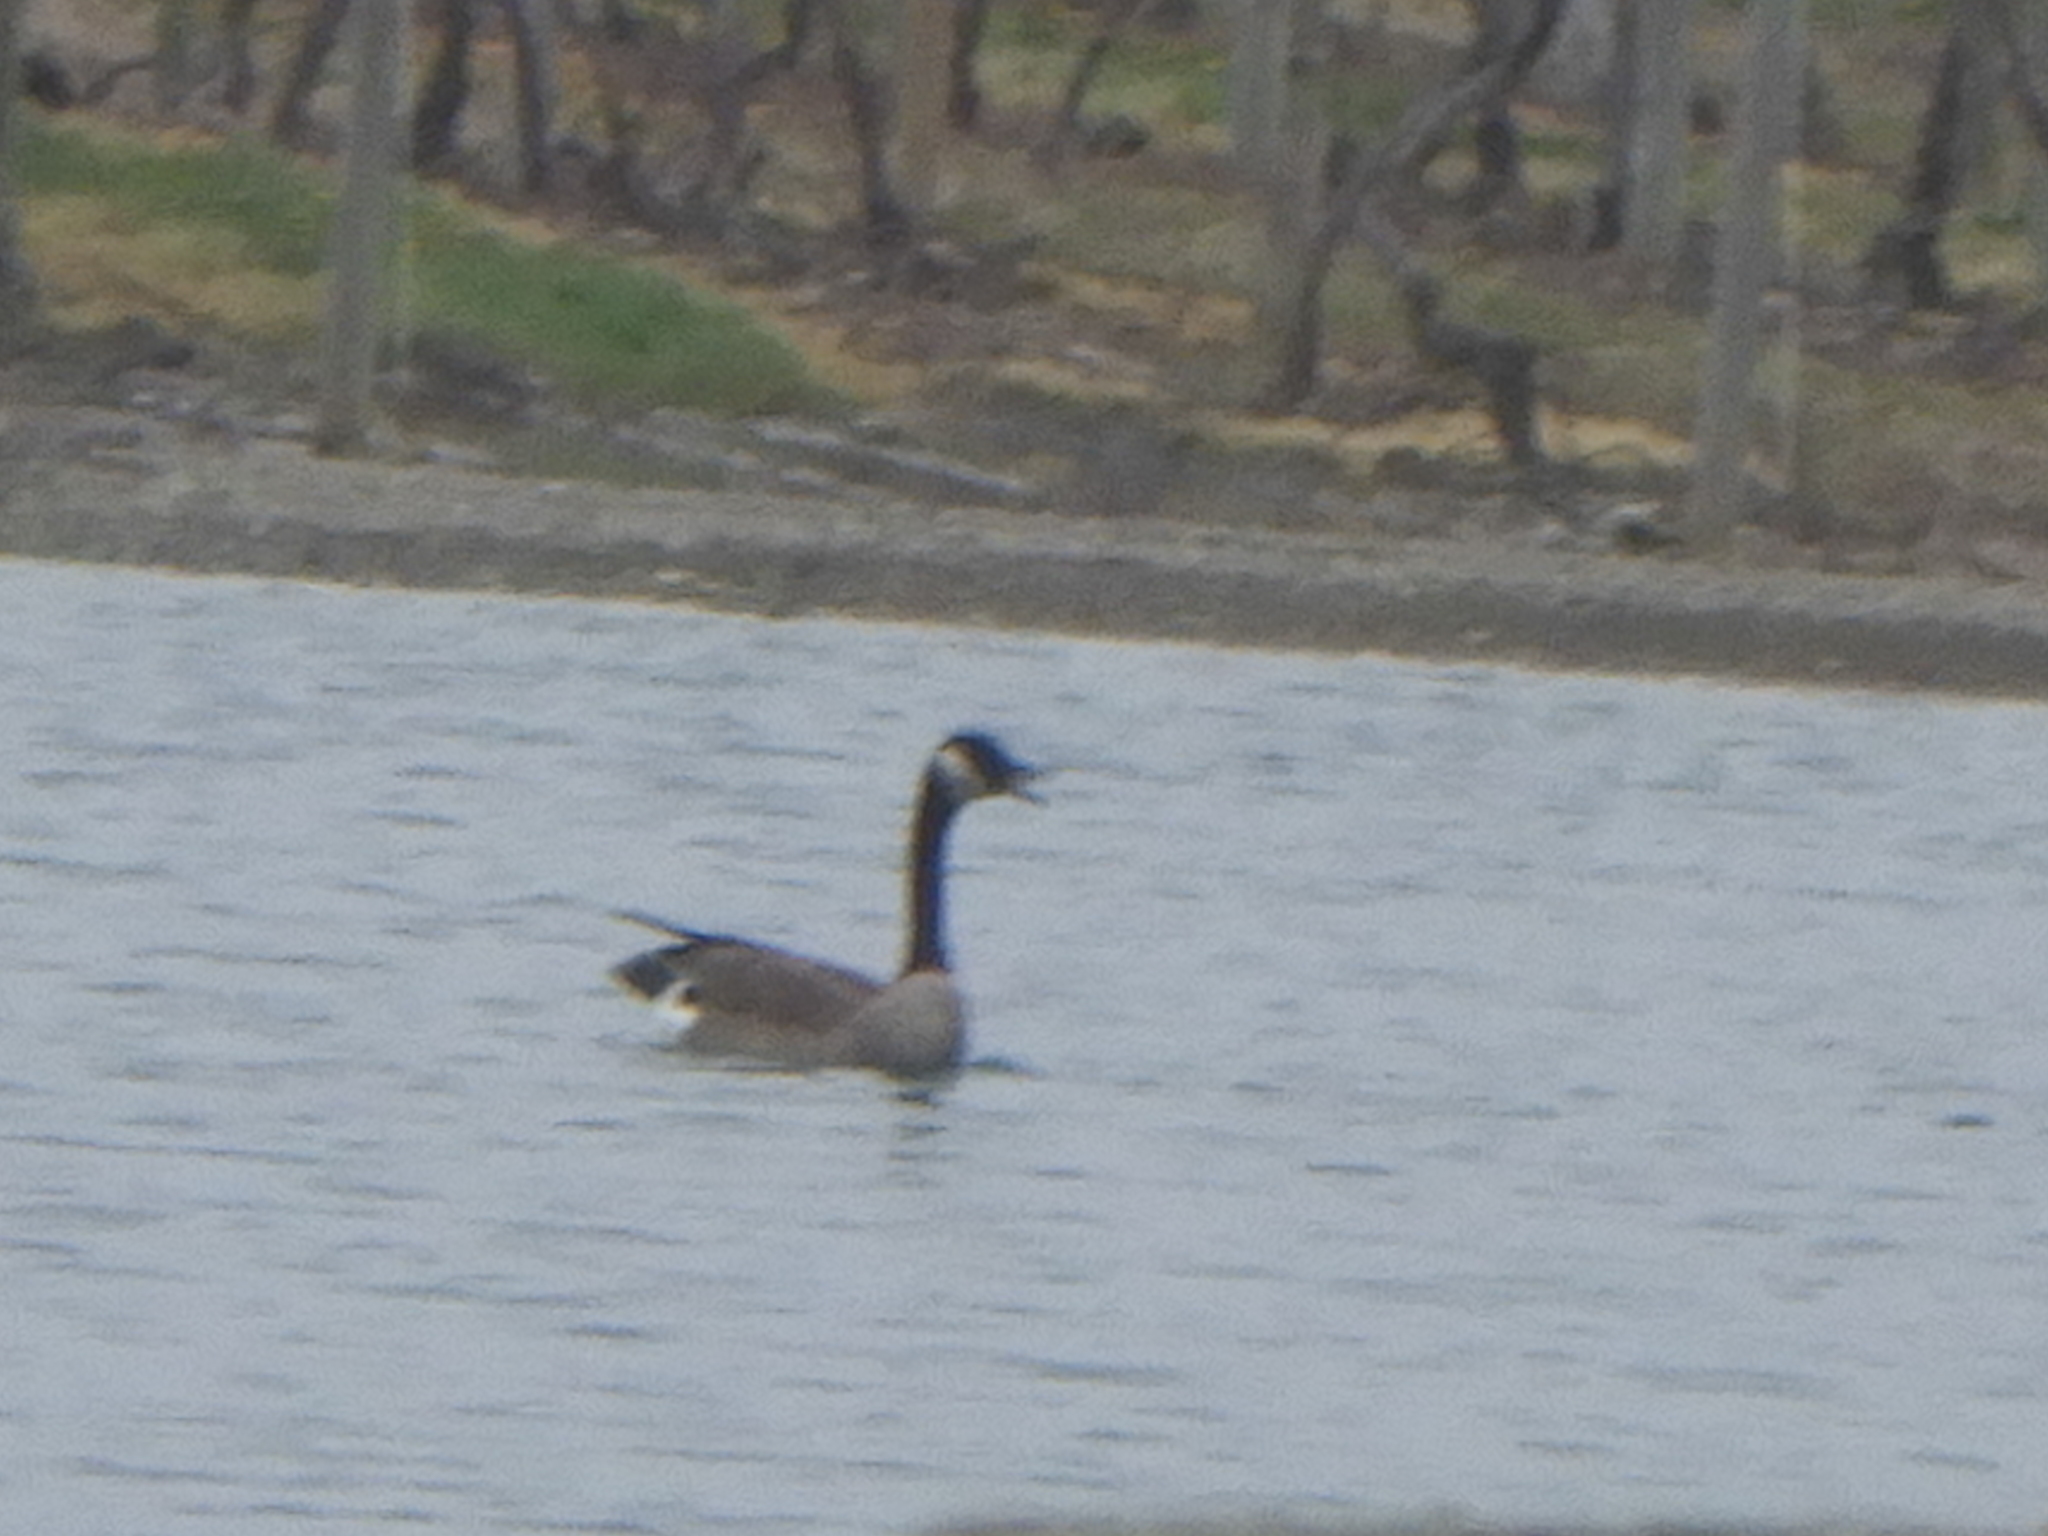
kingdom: Animalia
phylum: Chordata
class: Aves
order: Anseriformes
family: Anatidae
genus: Branta
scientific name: Branta canadensis
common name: Canada goose
